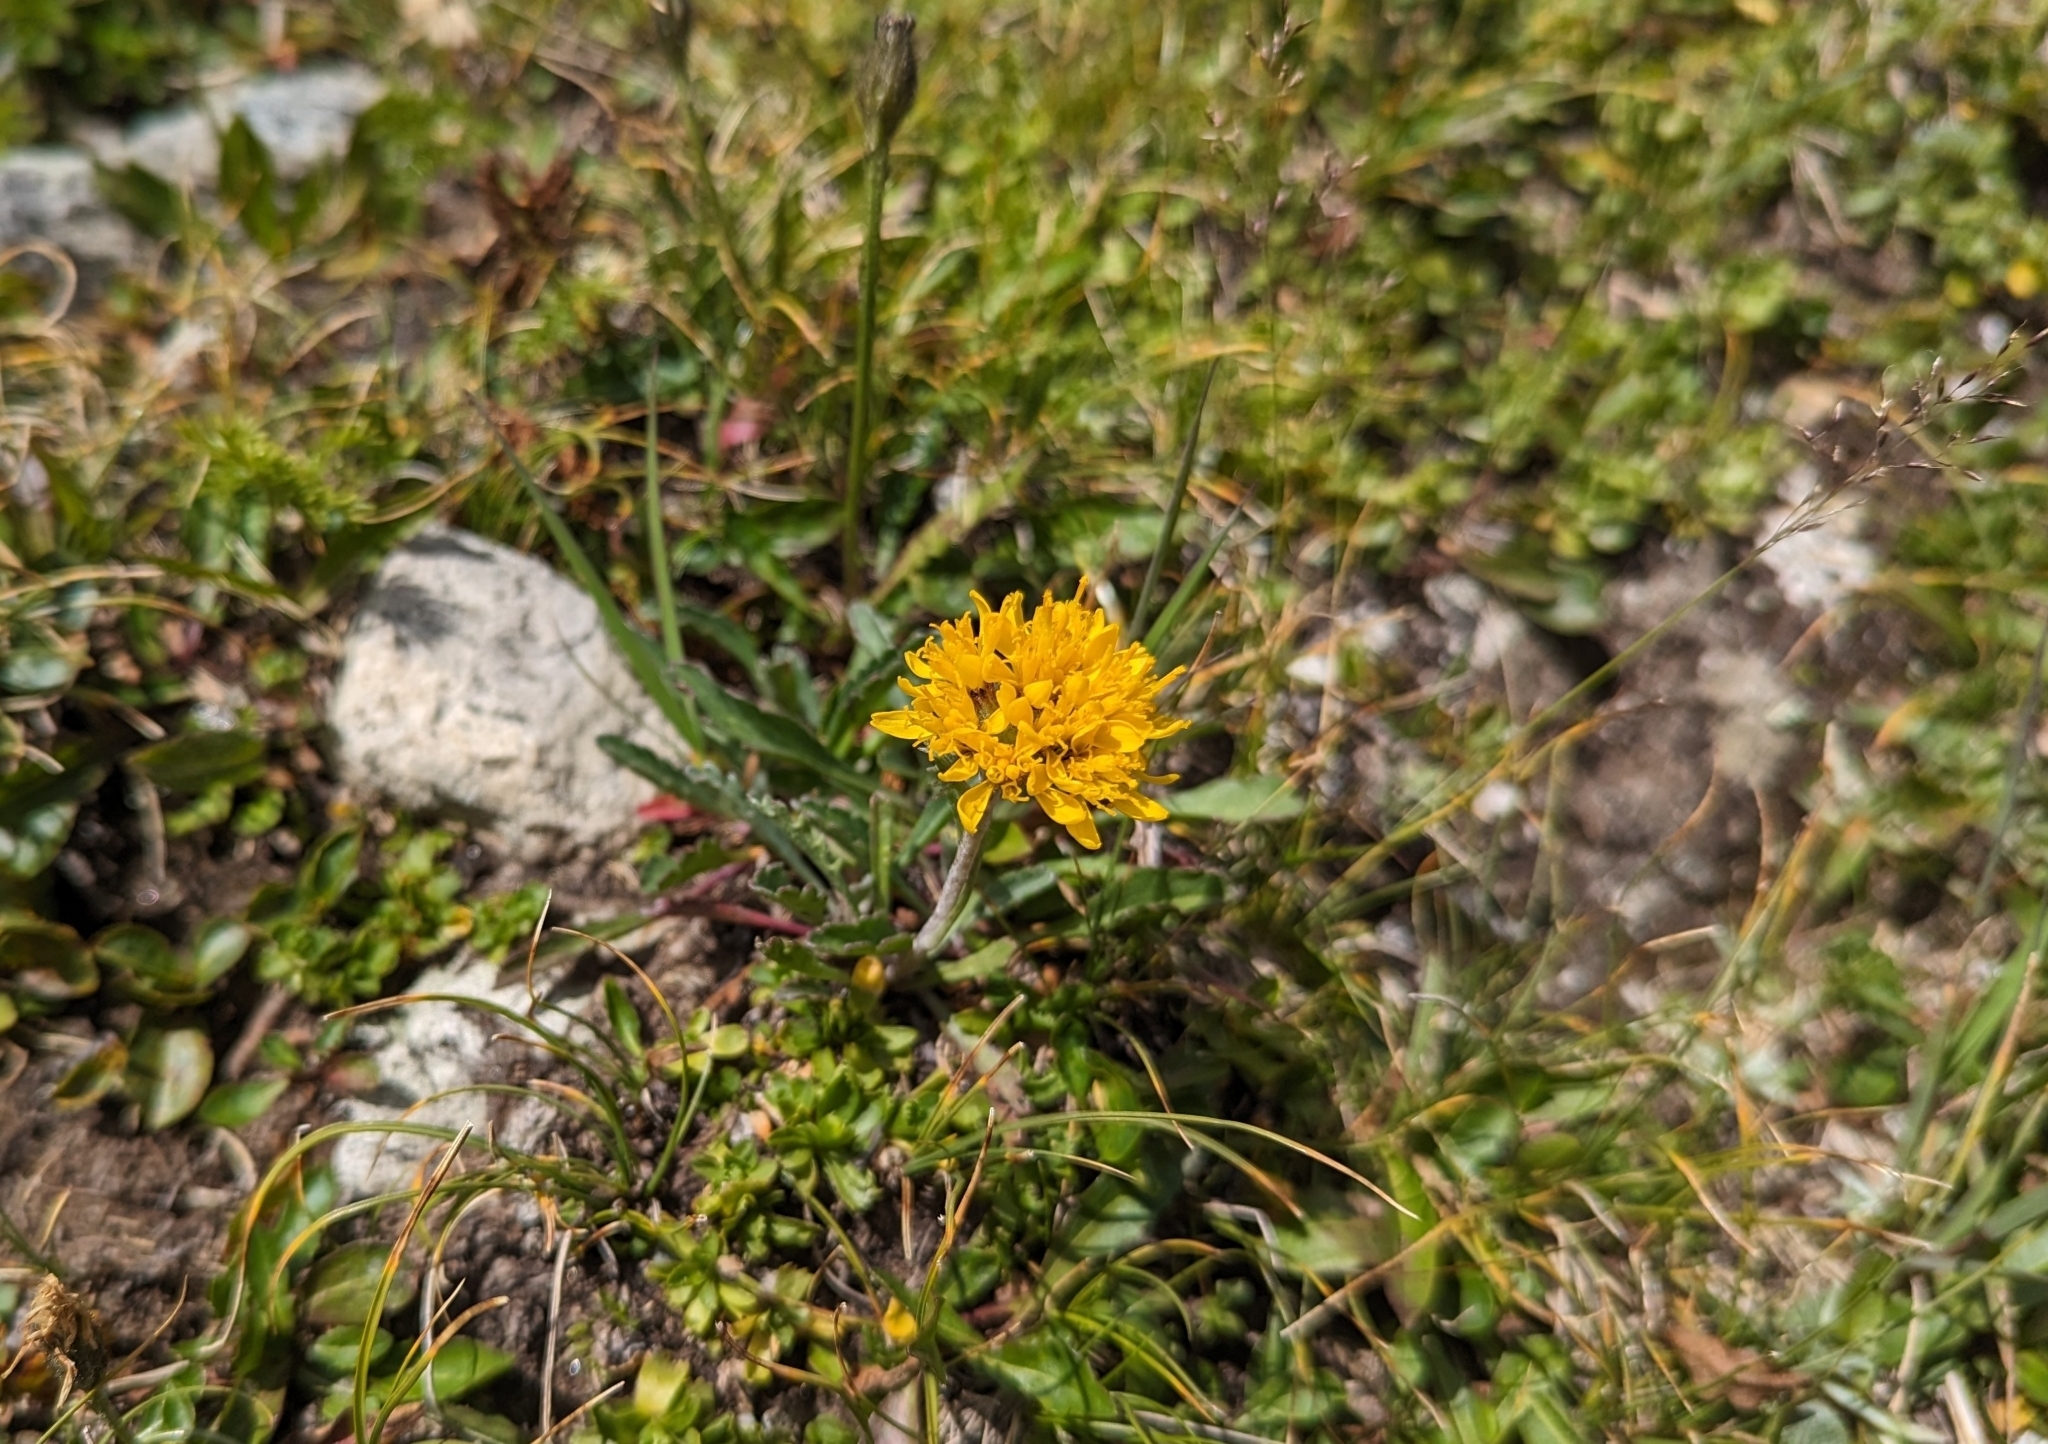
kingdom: Plantae
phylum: Tracheophyta
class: Magnoliopsida
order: Asterales
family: Asteraceae
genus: Jacobaea
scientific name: Jacobaea carniolica
